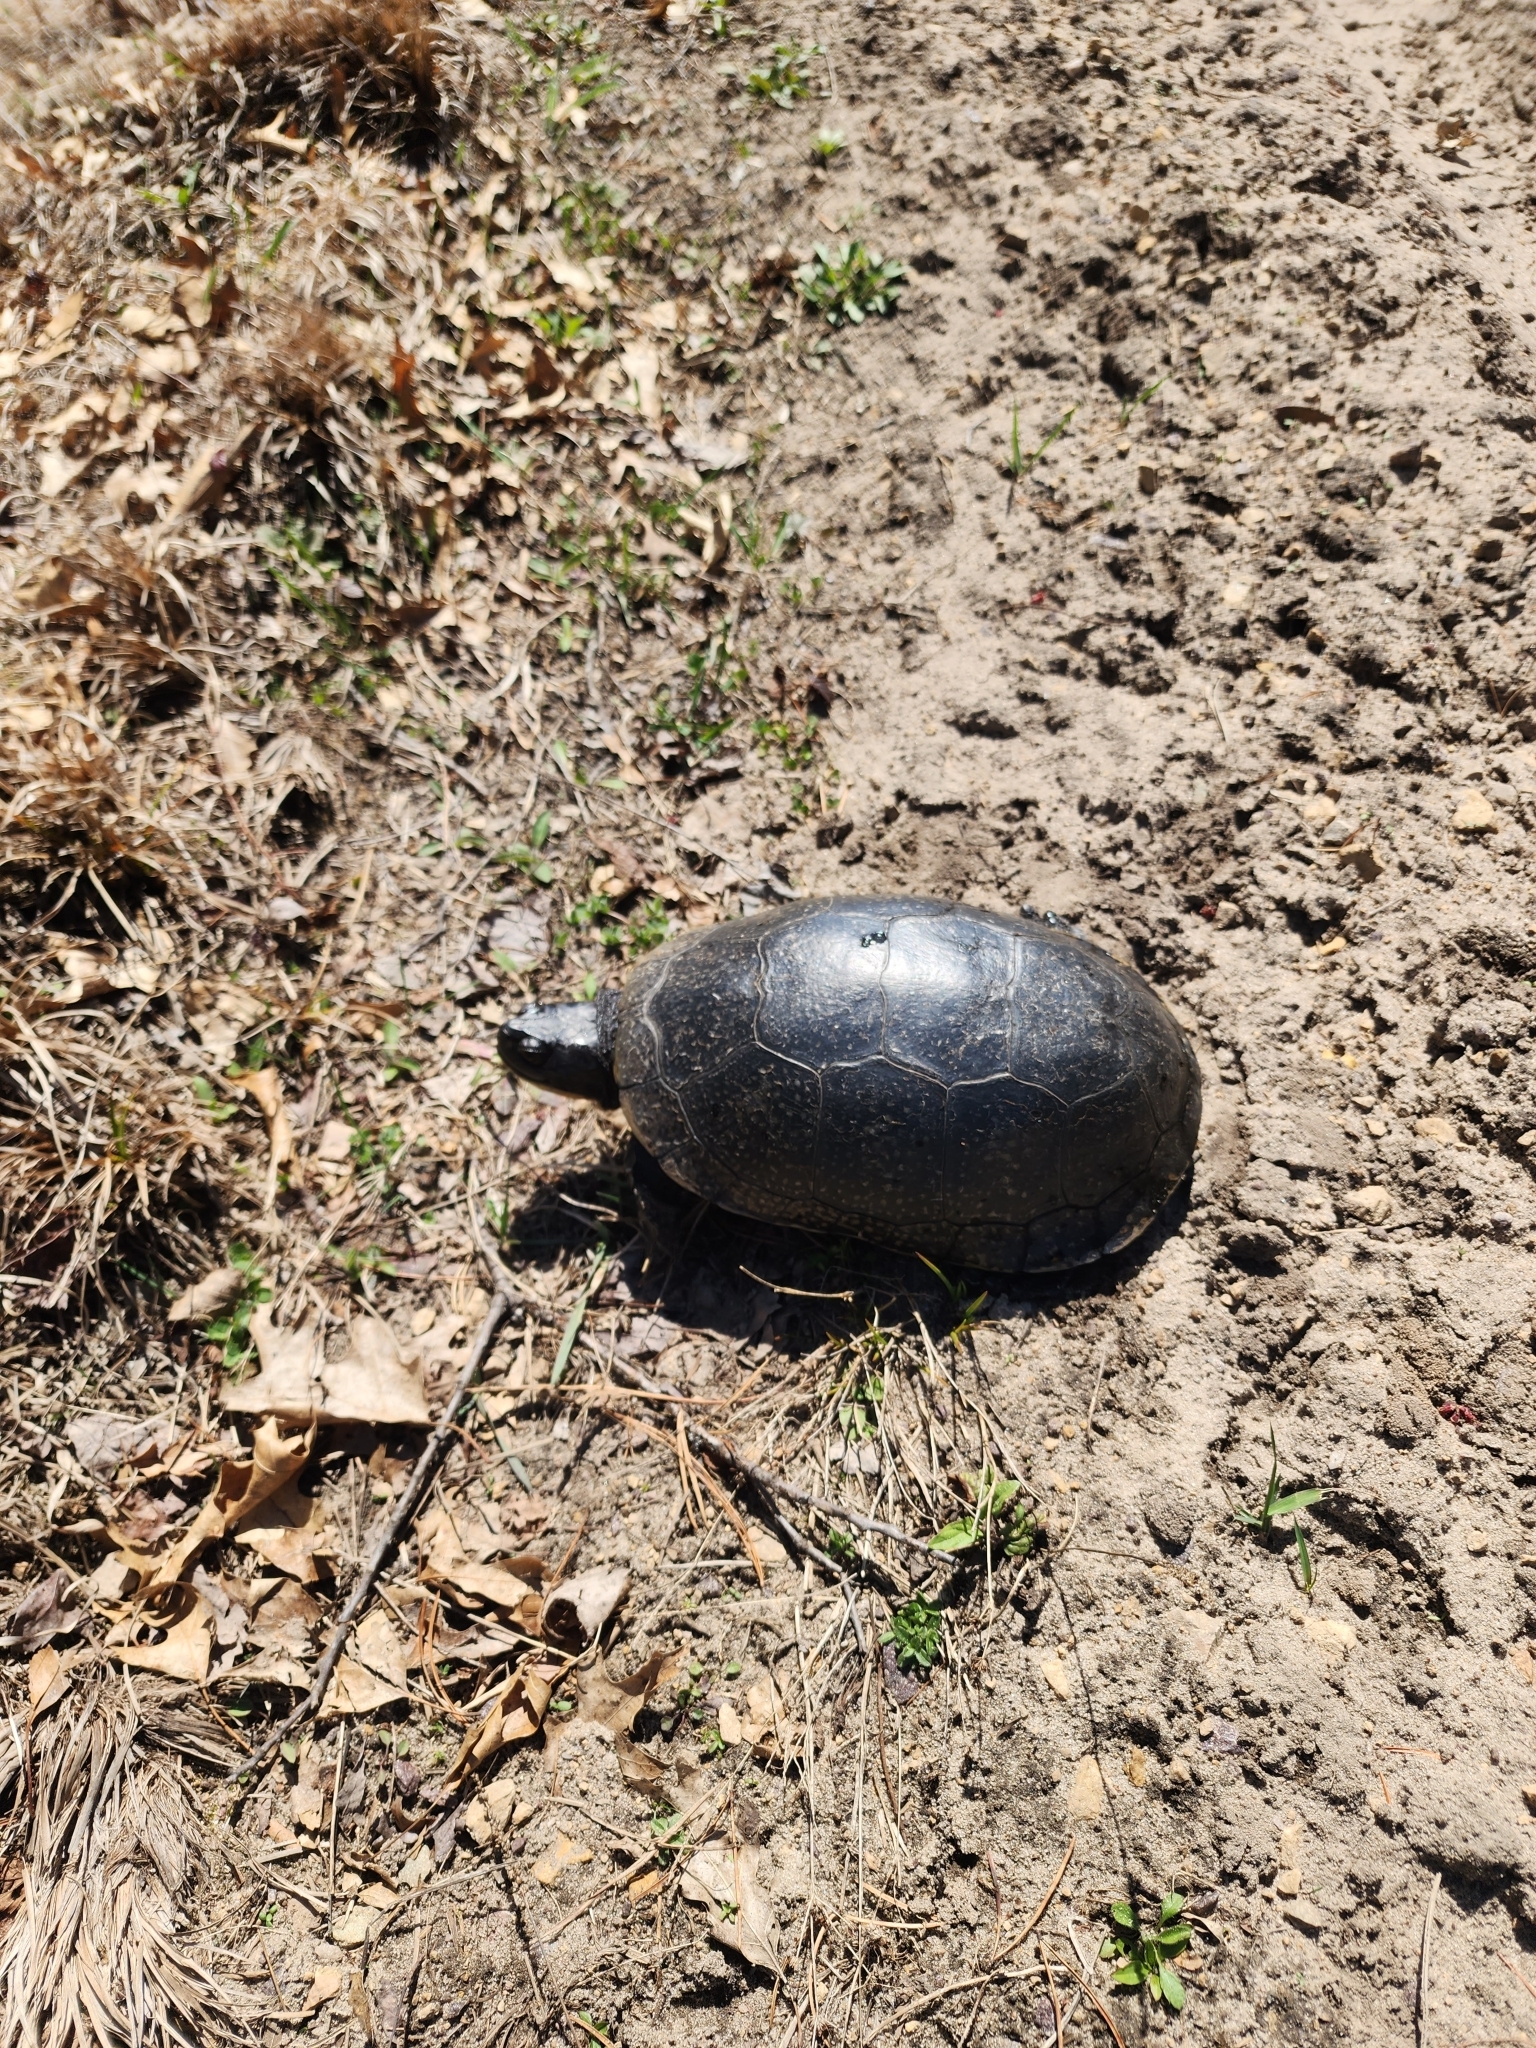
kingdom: Animalia
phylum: Chordata
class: Testudines
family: Emydidae
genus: Emys
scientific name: Emys blandingii
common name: Blanding's turtle
